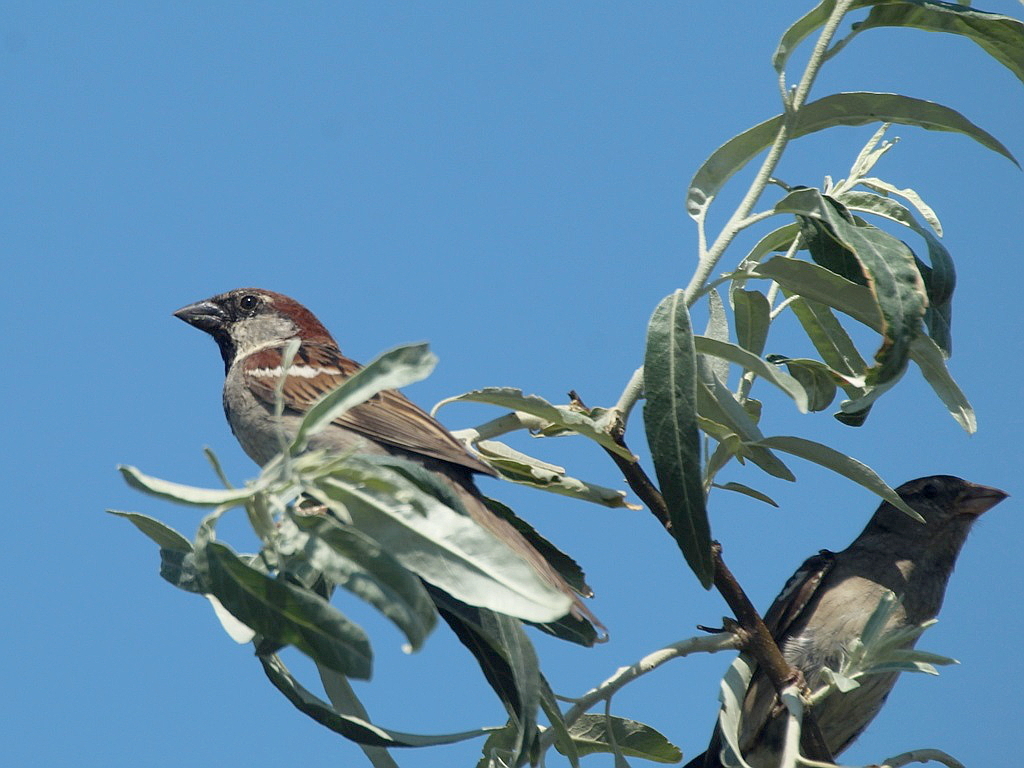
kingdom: Animalia
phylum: Chordata
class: Aves
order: Passeriformes
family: Passeridae
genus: Passer
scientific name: Passer domesticus
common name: House sparrow
